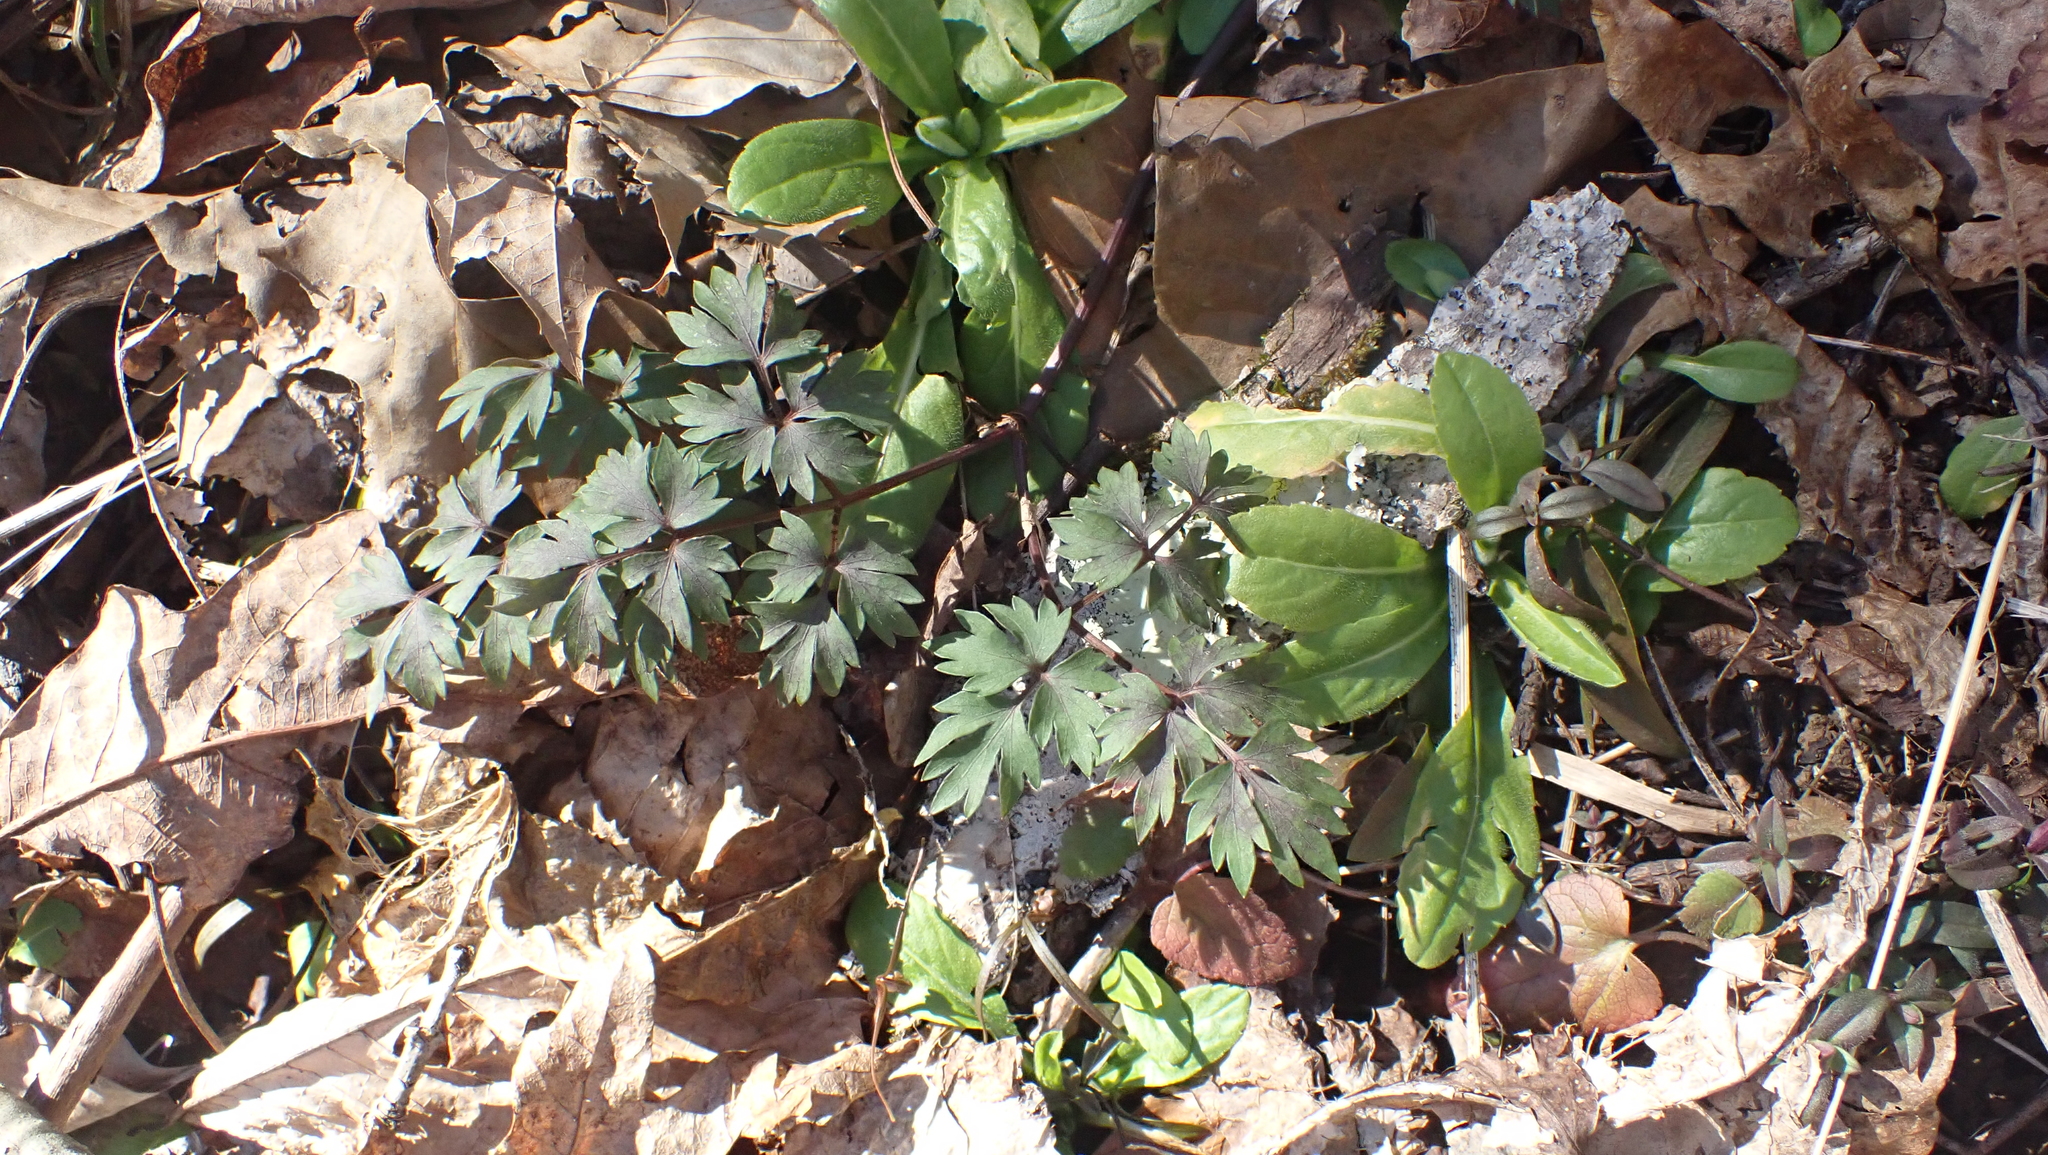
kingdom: Plantae
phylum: Tracheophyta
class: Magnoliopsida
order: Apiales
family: Apiaceae
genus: Erigenia
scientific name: Erigenia bulbosa
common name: Pepper-and-salt
